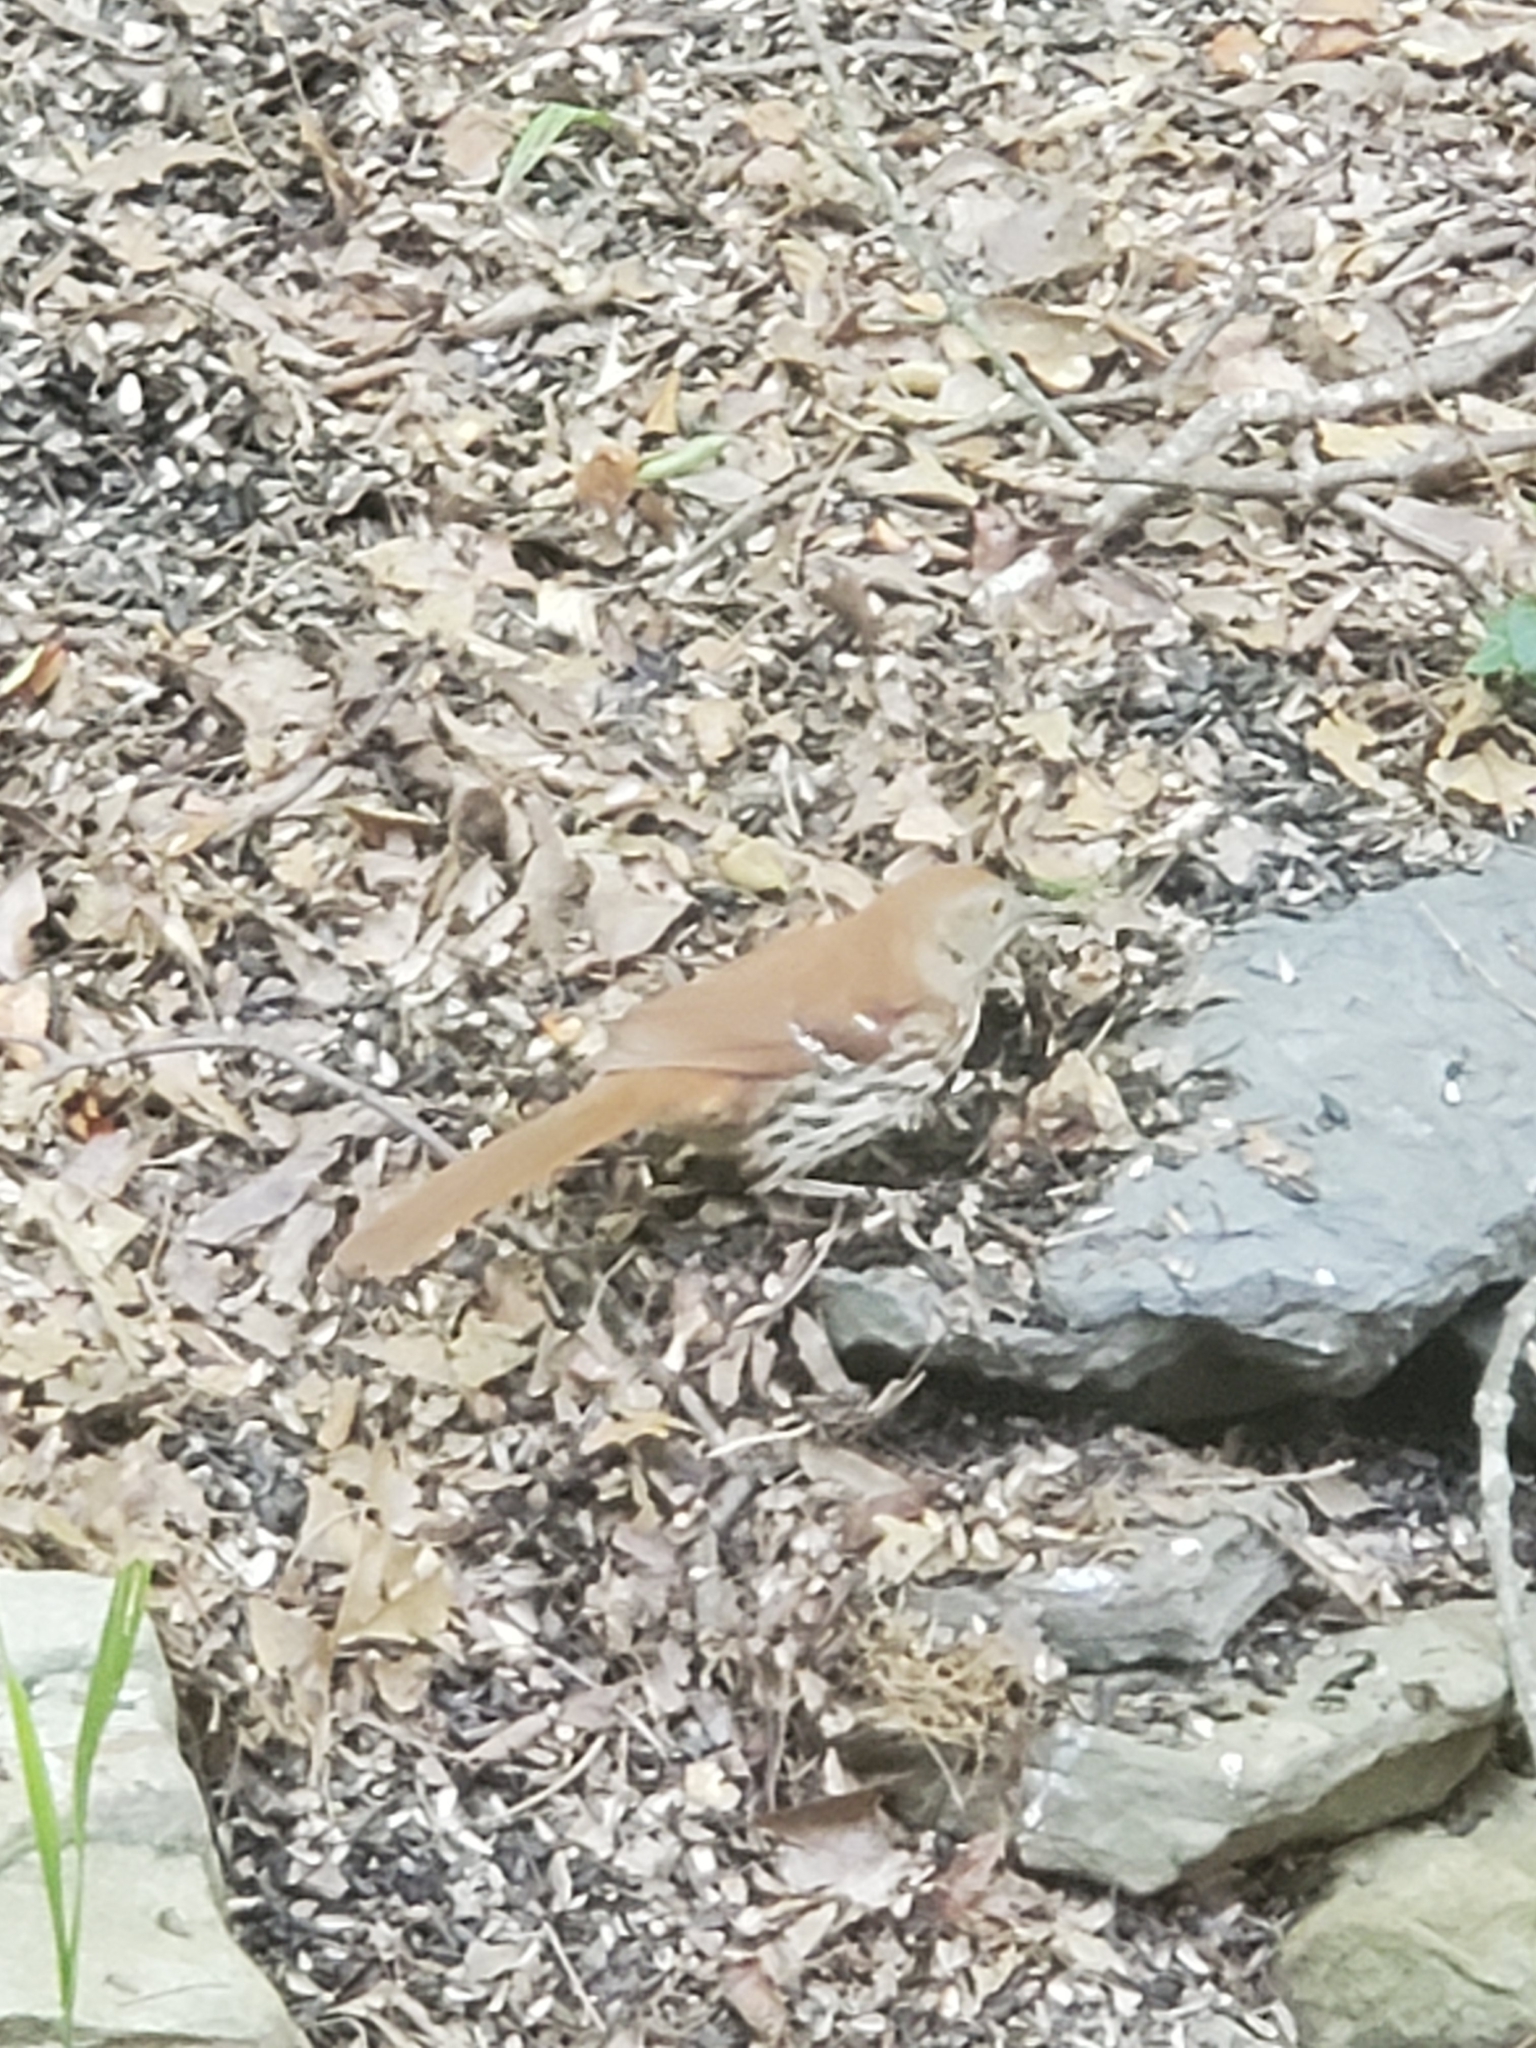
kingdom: Animalia
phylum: Chordata
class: Aves
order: Passeriformes
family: Mimidae
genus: Toxostoma
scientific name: Toxostoma rufum
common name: Brown thrasher
